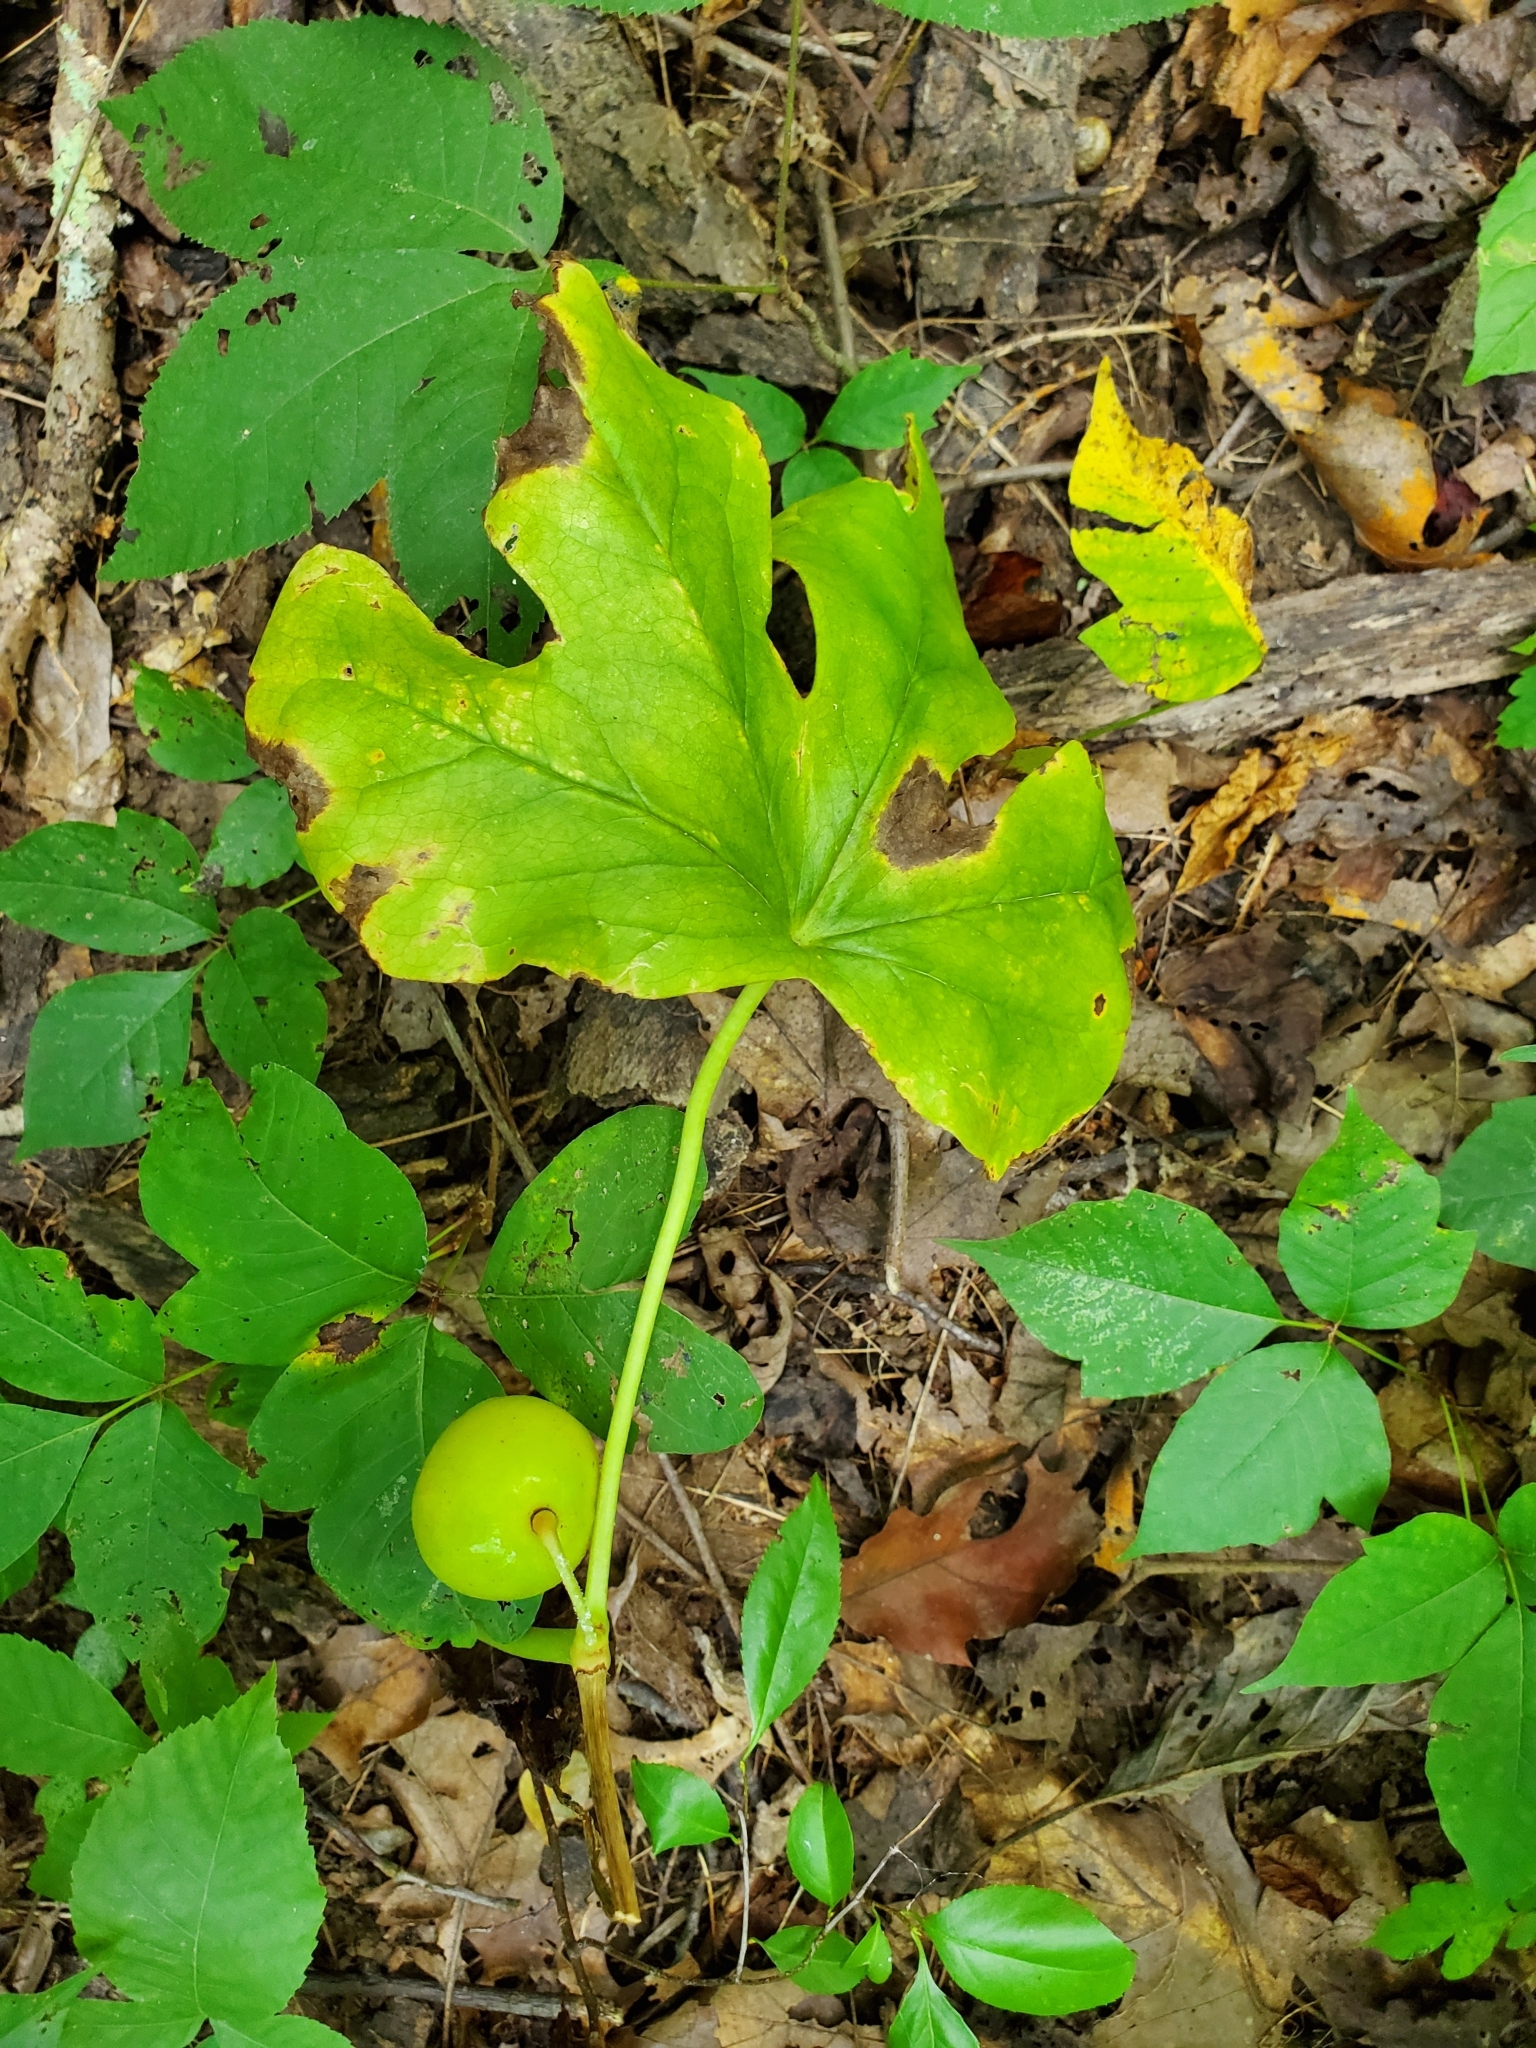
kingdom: Plantae
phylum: Tracheophyta
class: Magnoliopsida
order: Ranunculales
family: Berberidaceae
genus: Podophyllum
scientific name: Podophyllum peltatum
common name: Wild mandrake
